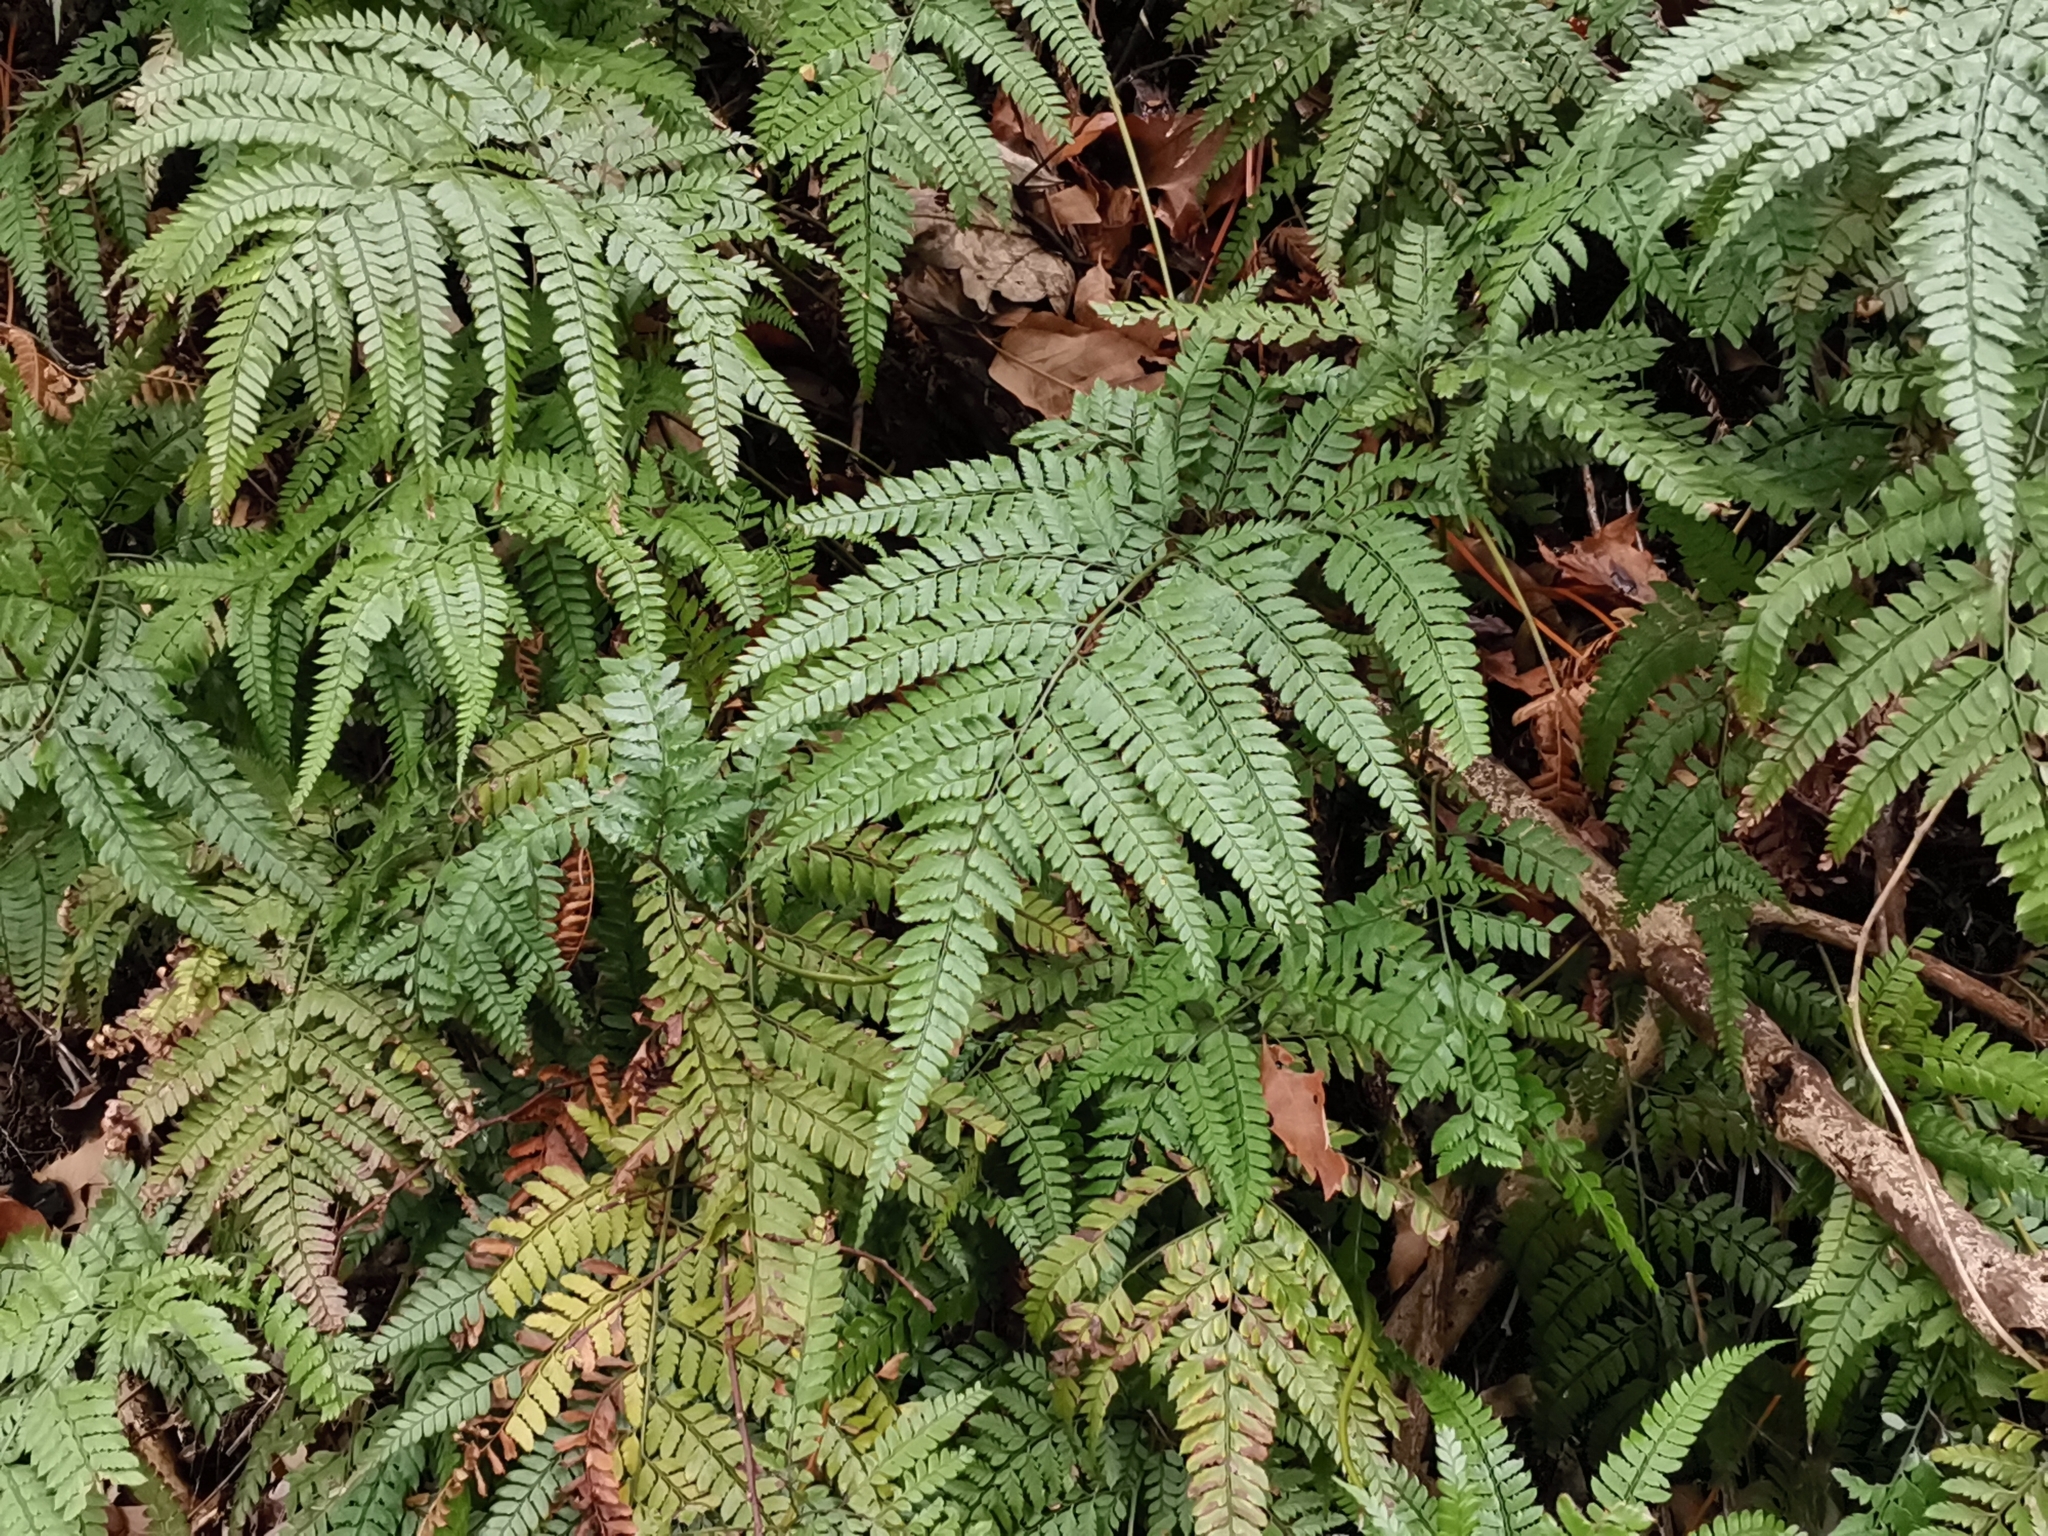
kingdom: Plantae
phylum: Tracheophyta
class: Polypodiopsida
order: Polypodiales
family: Dryopteridaceae
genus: Arachniodes
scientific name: Arachniodes aristata
